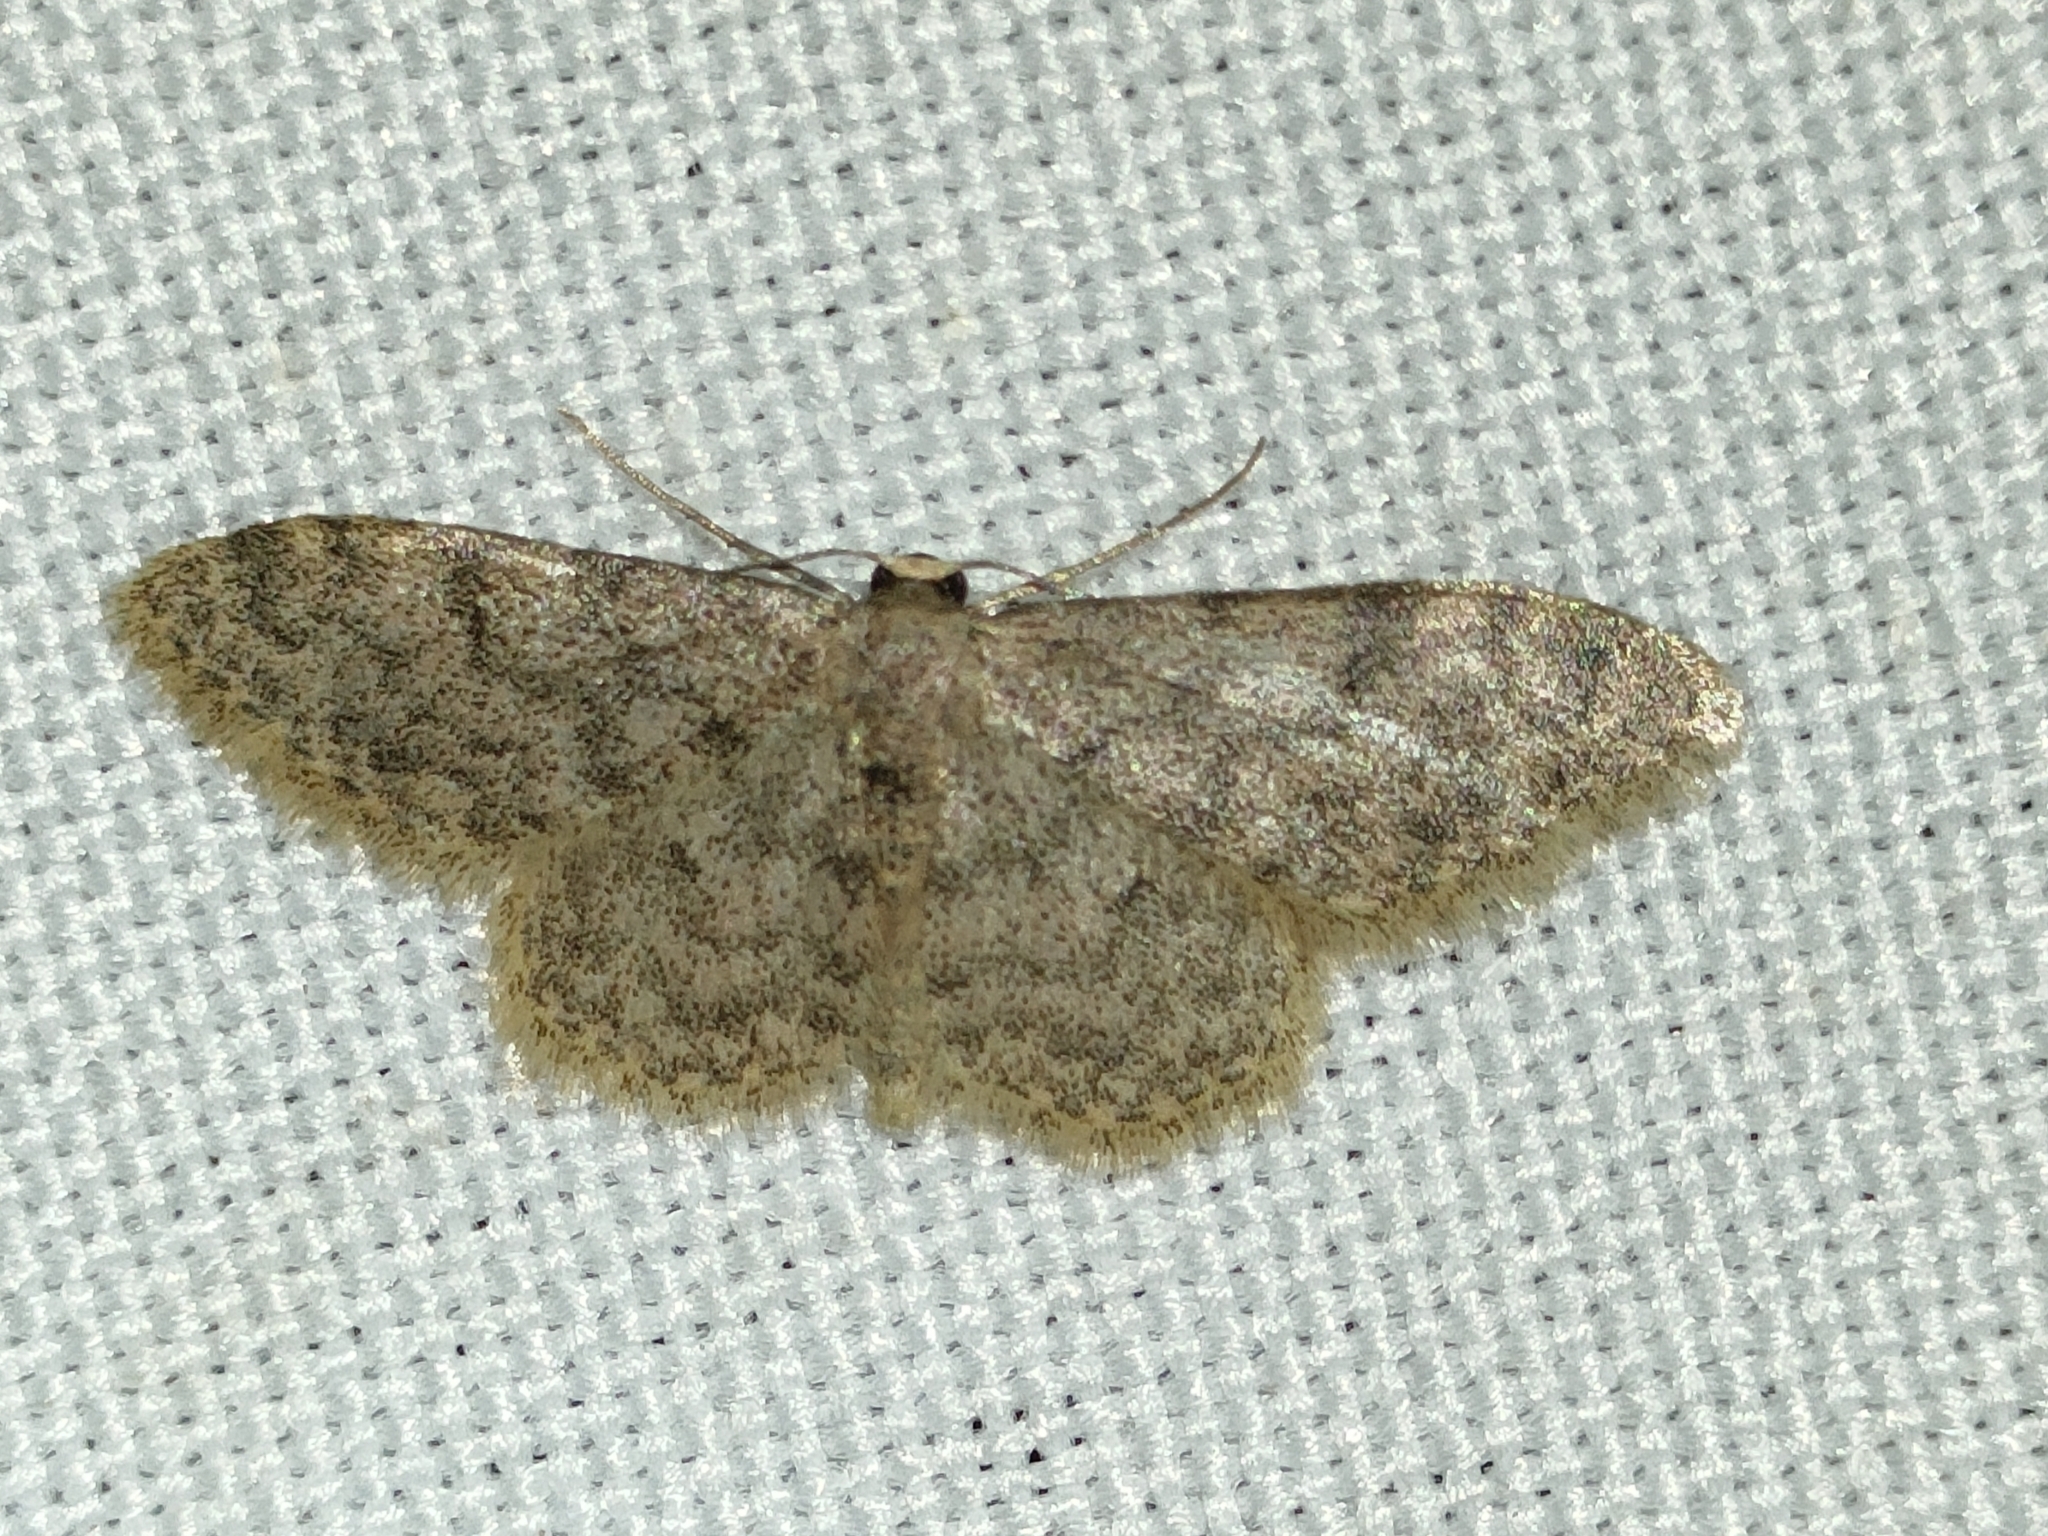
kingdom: Animalia
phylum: Arthropoda
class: Insecta
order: Lepidoptera
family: Geometridae
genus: Idaea
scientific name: Idaea cervantaria
